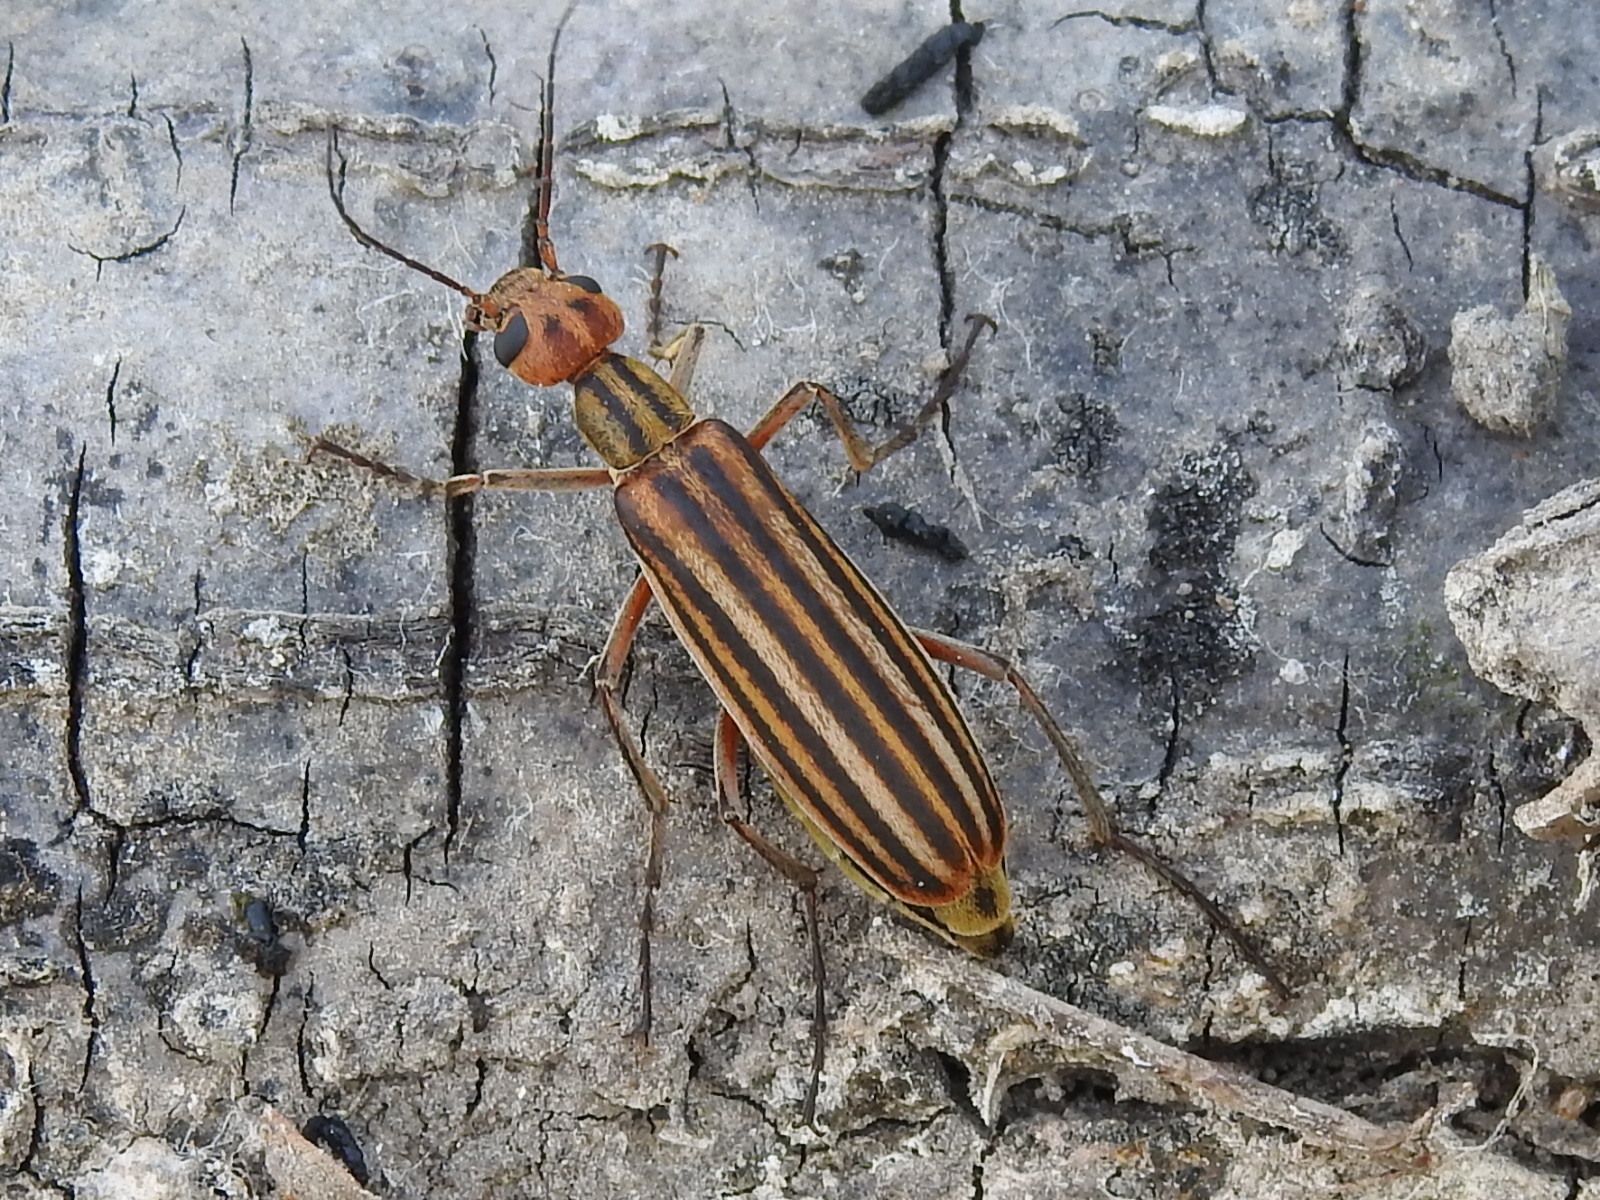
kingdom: Animalia
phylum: Arthropoda
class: Insecta
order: Coleoptera
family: Meloidae
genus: Epicauta
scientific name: Epicauta vittata
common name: Old-fashioned potato beetle
